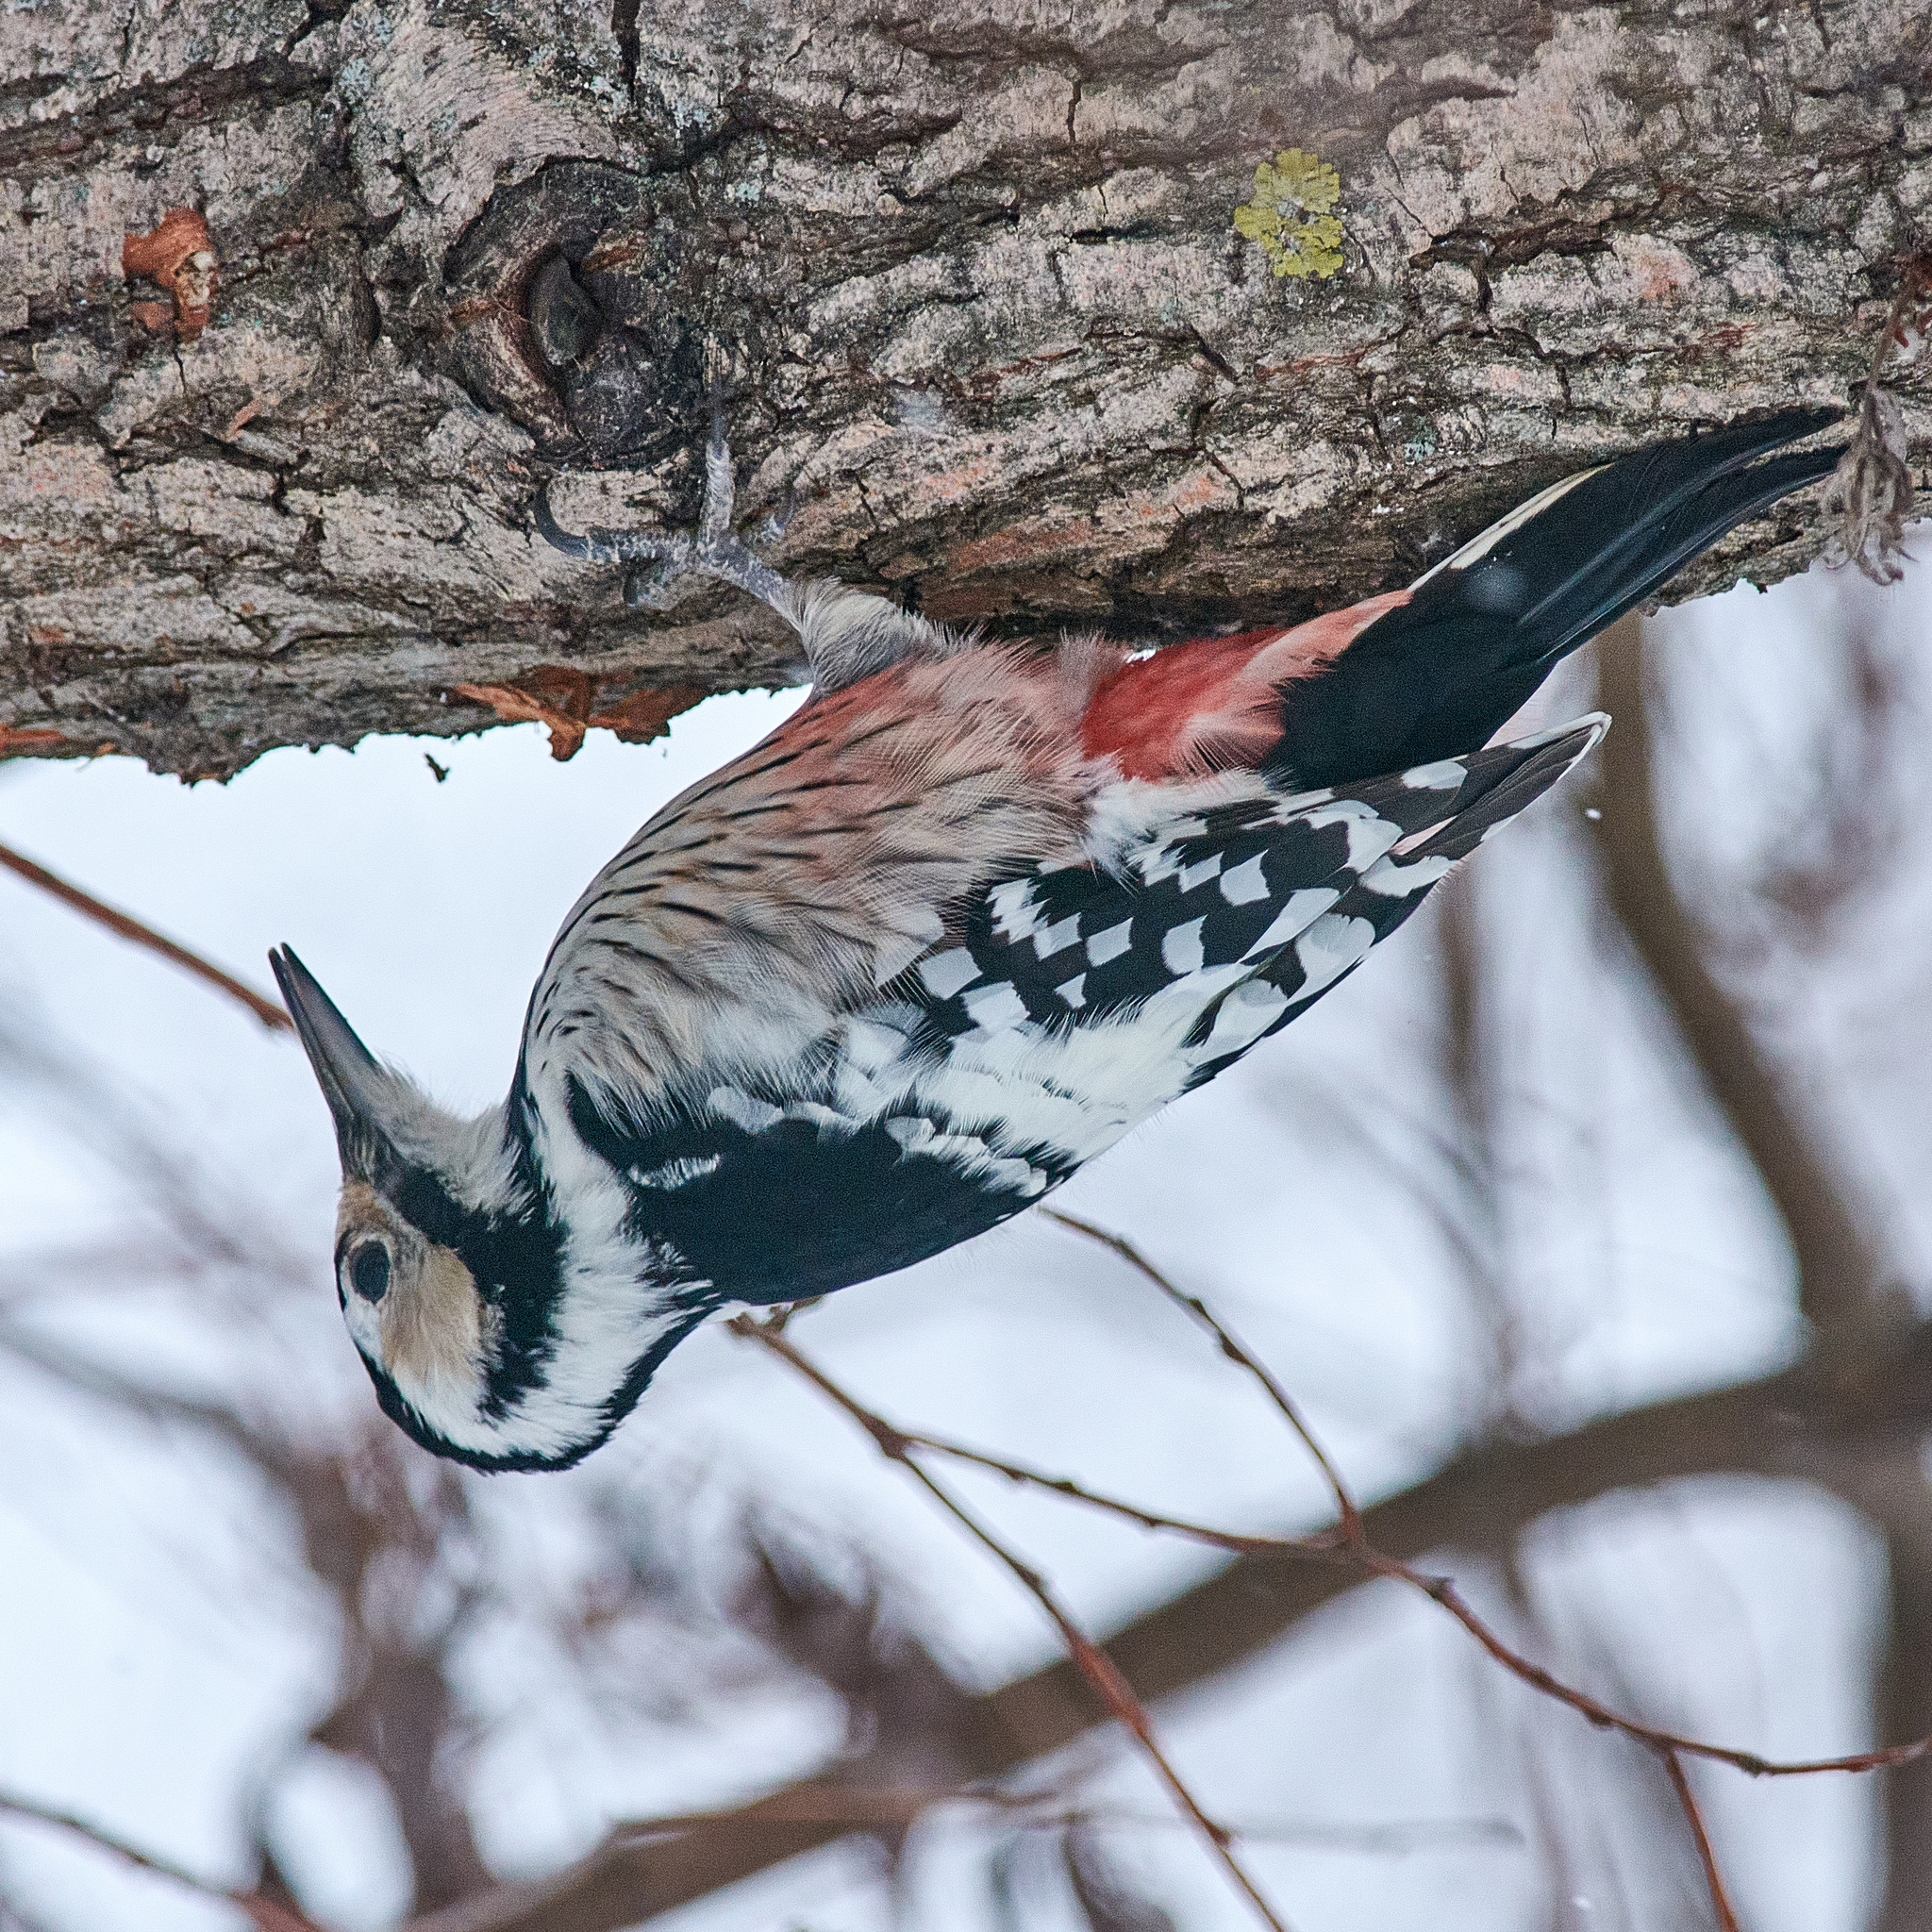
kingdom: Animalia
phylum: Chordata
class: Aves
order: Piciformes
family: Picidae
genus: Dendrocopos
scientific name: Dendrocopos leucotos
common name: White-backed woodpecker
